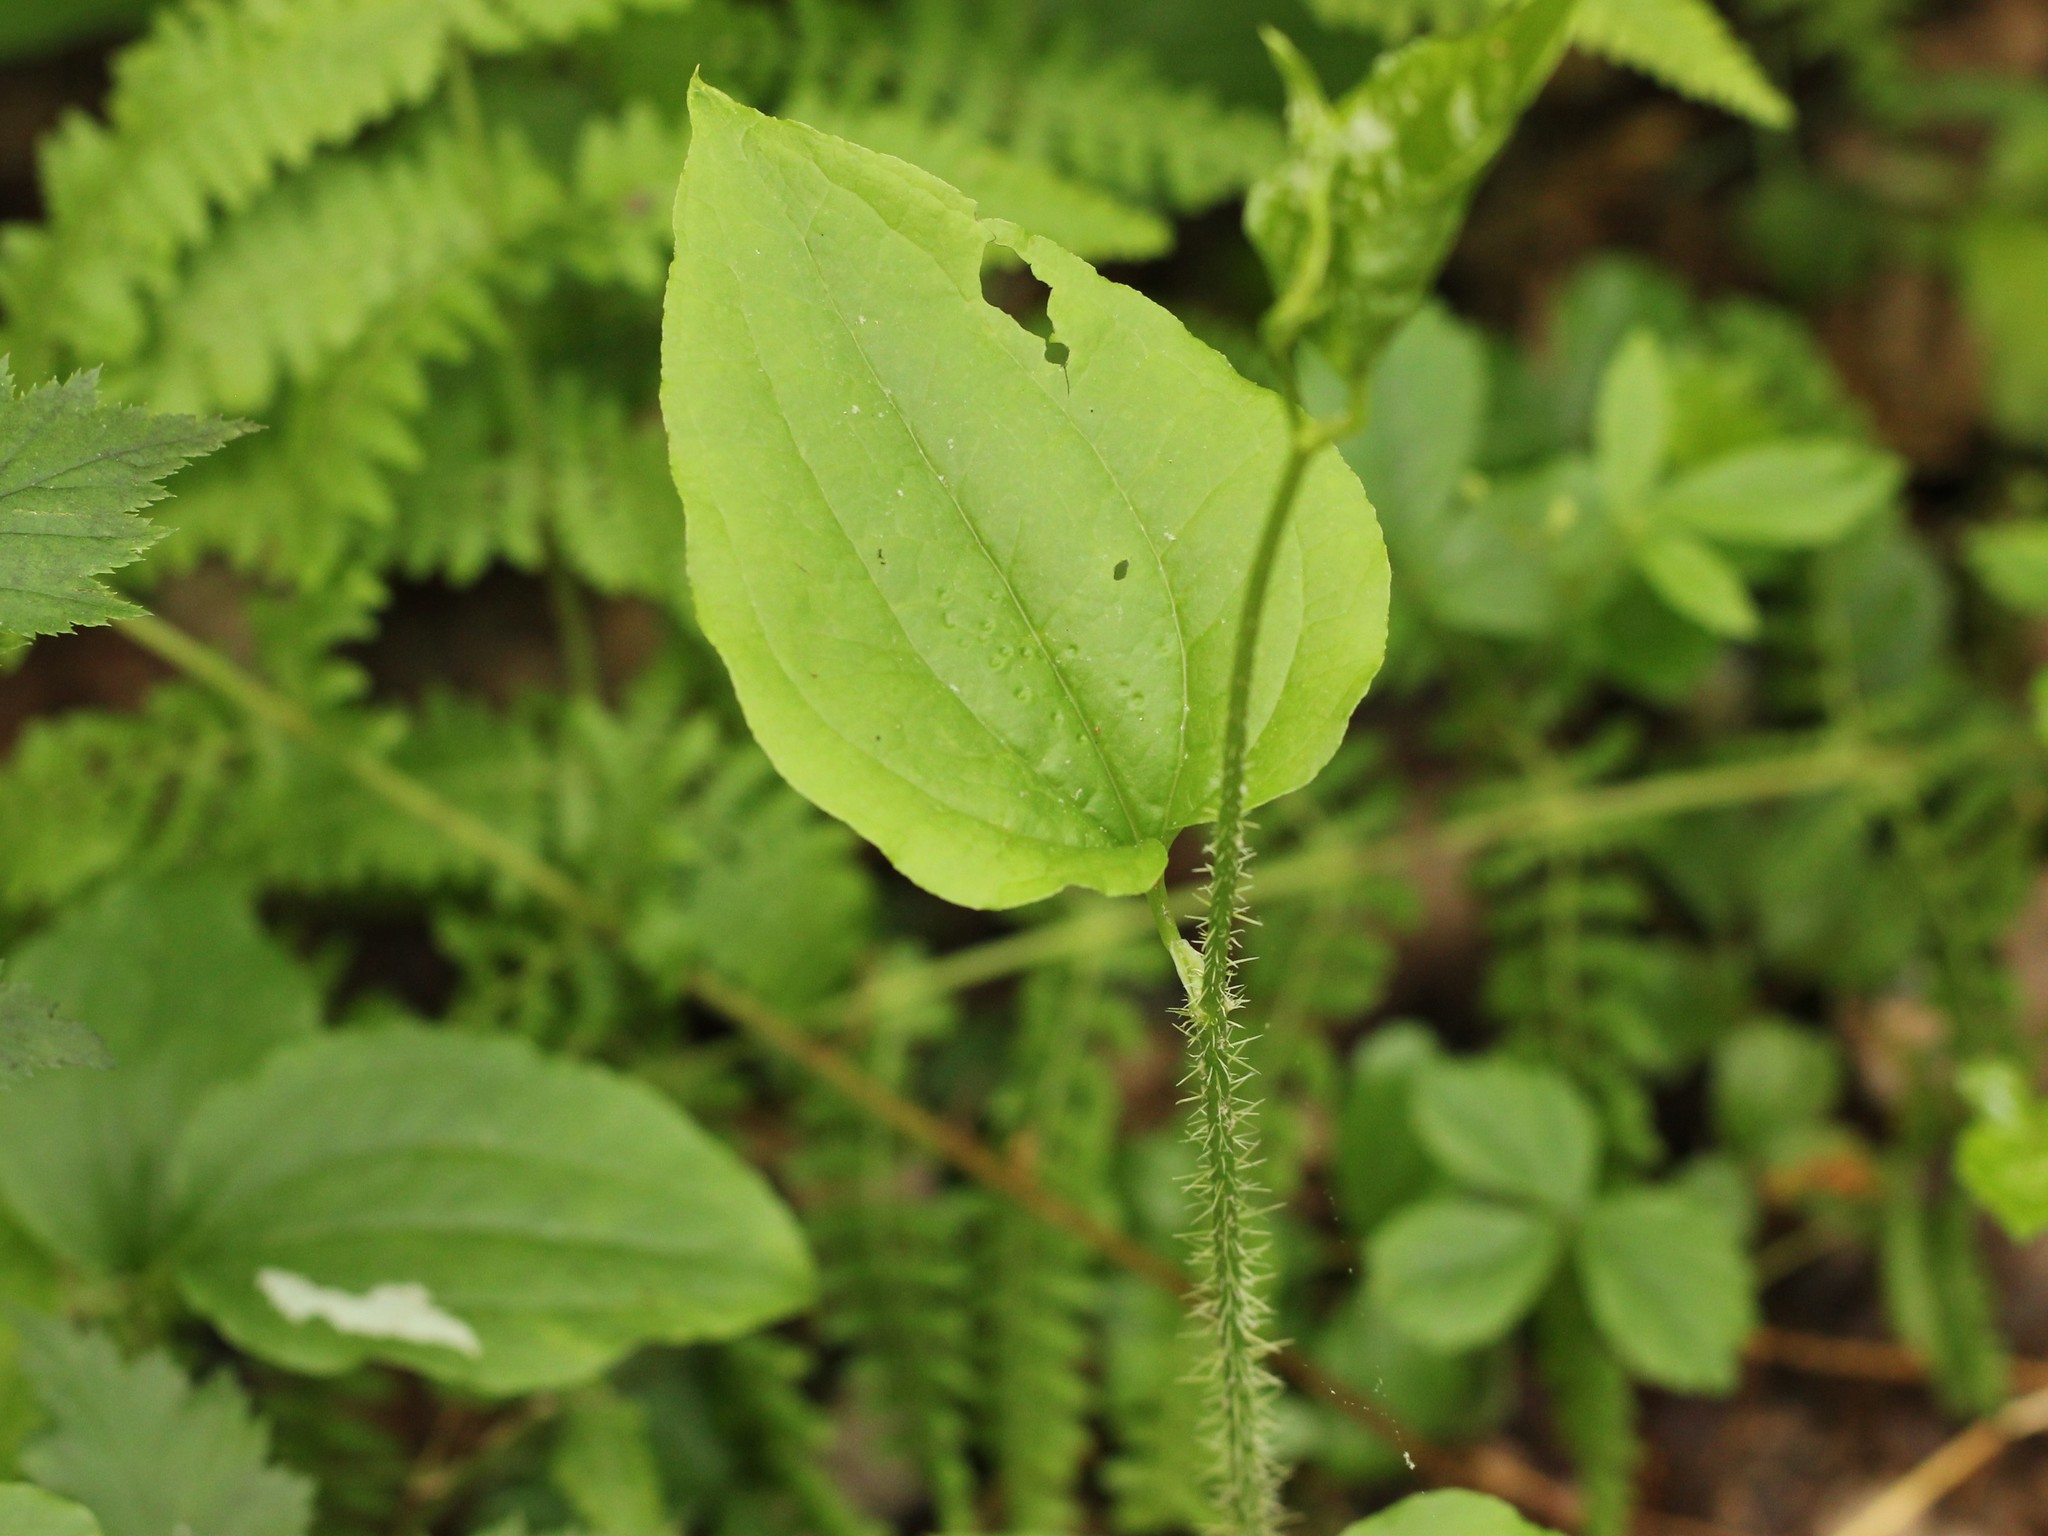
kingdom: Plantae
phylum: Tracheophyta
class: Liliopsida
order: Liliales
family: Smilacaceae
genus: Smilax
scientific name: Smilax tamnoides
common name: Hellfetter
